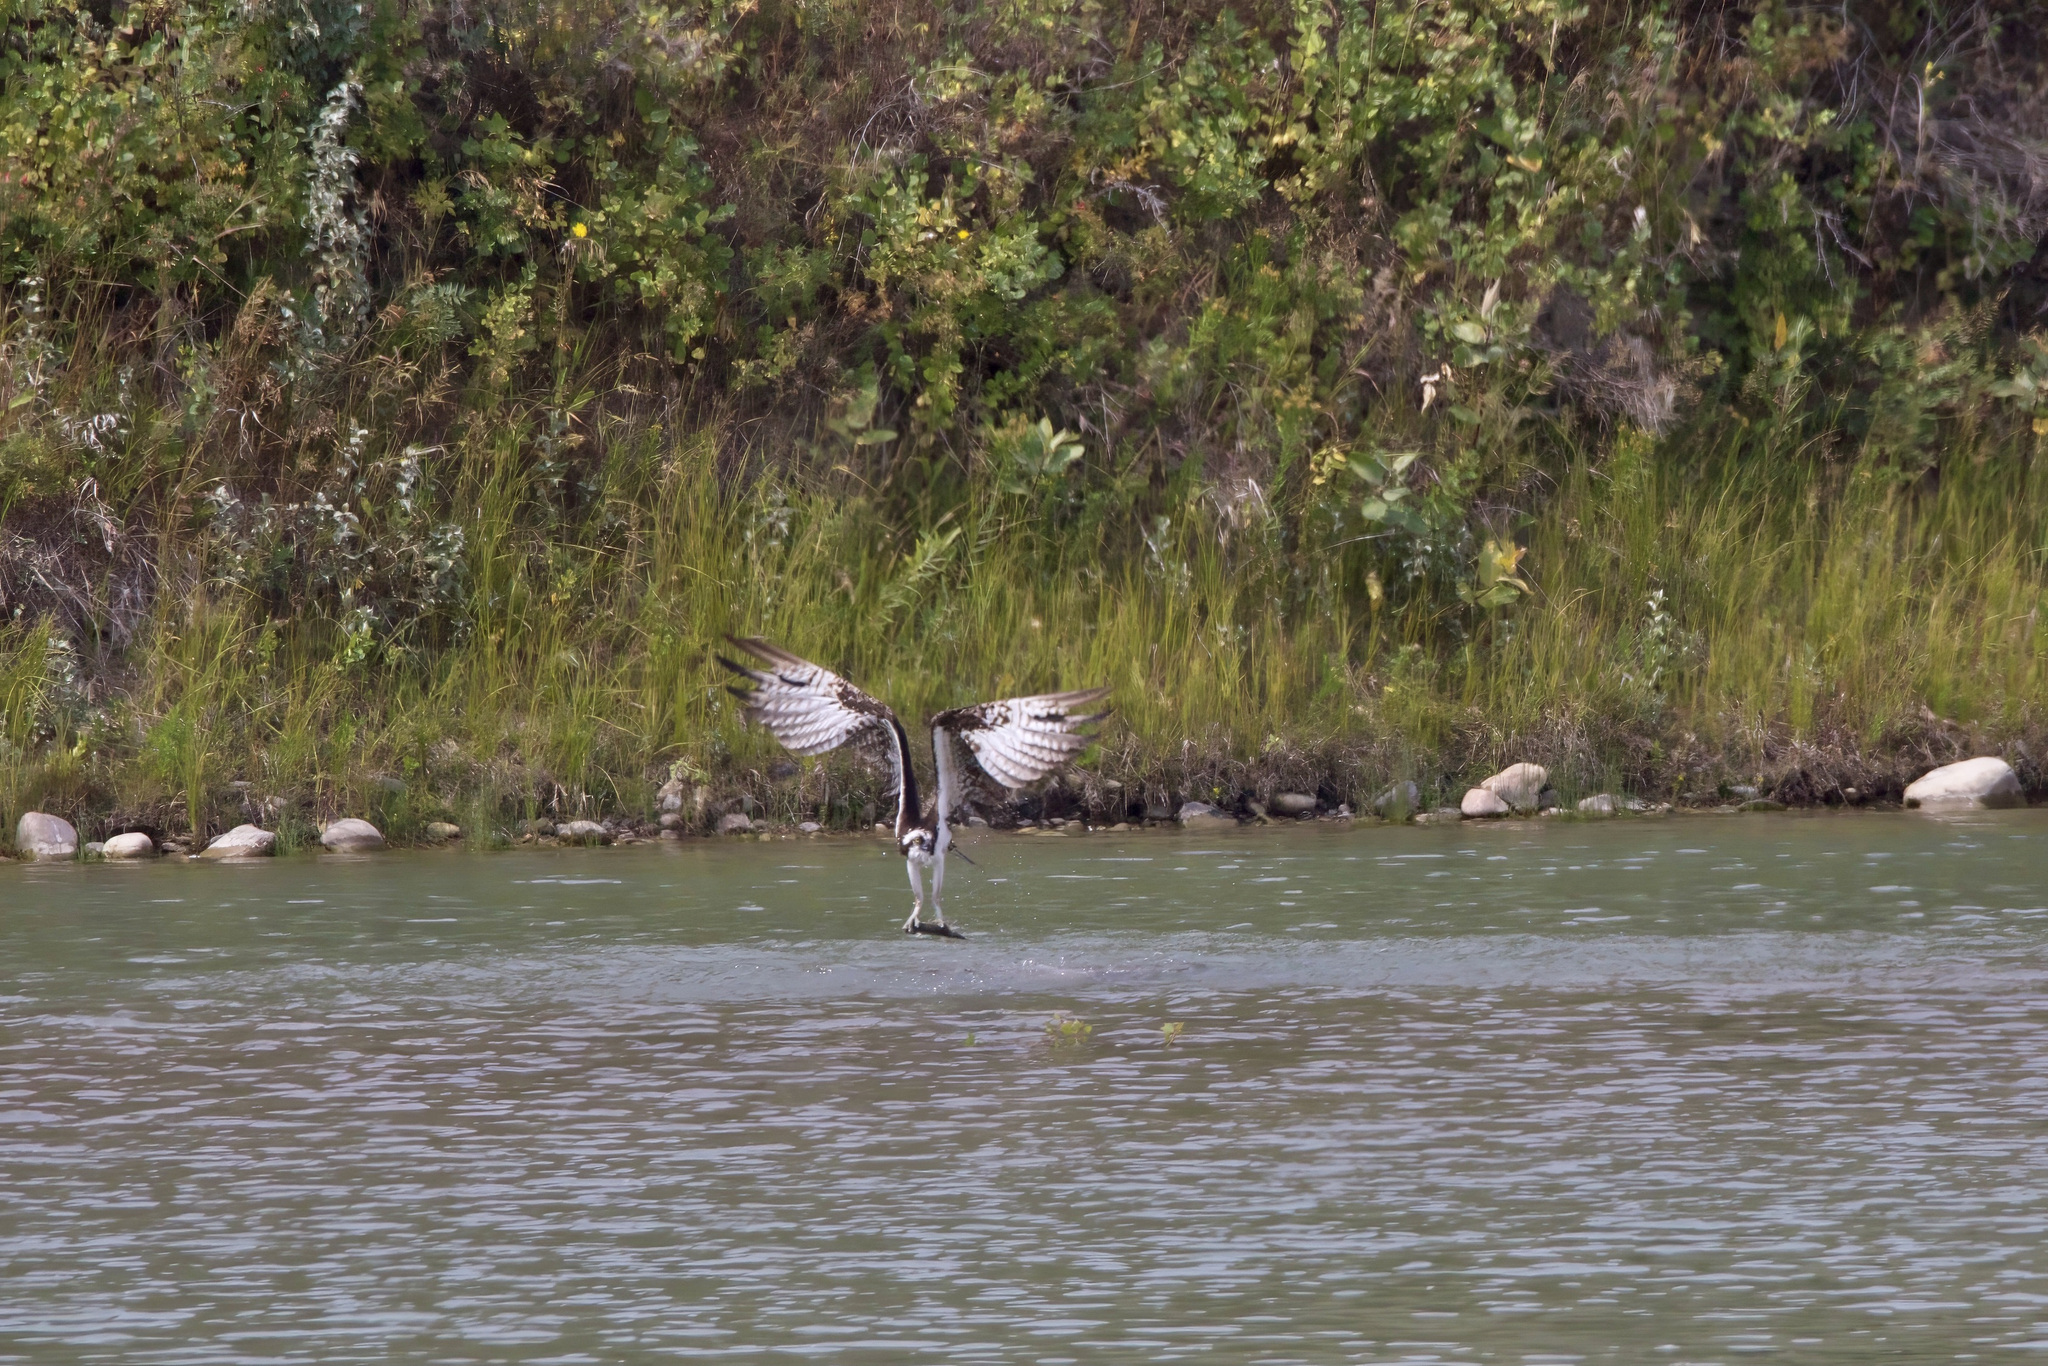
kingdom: Animalia
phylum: Chordata
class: Aves
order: Accipitriformes
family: Pandionidae
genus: Pandion
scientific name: Pandion haliaetus
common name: Osprey
